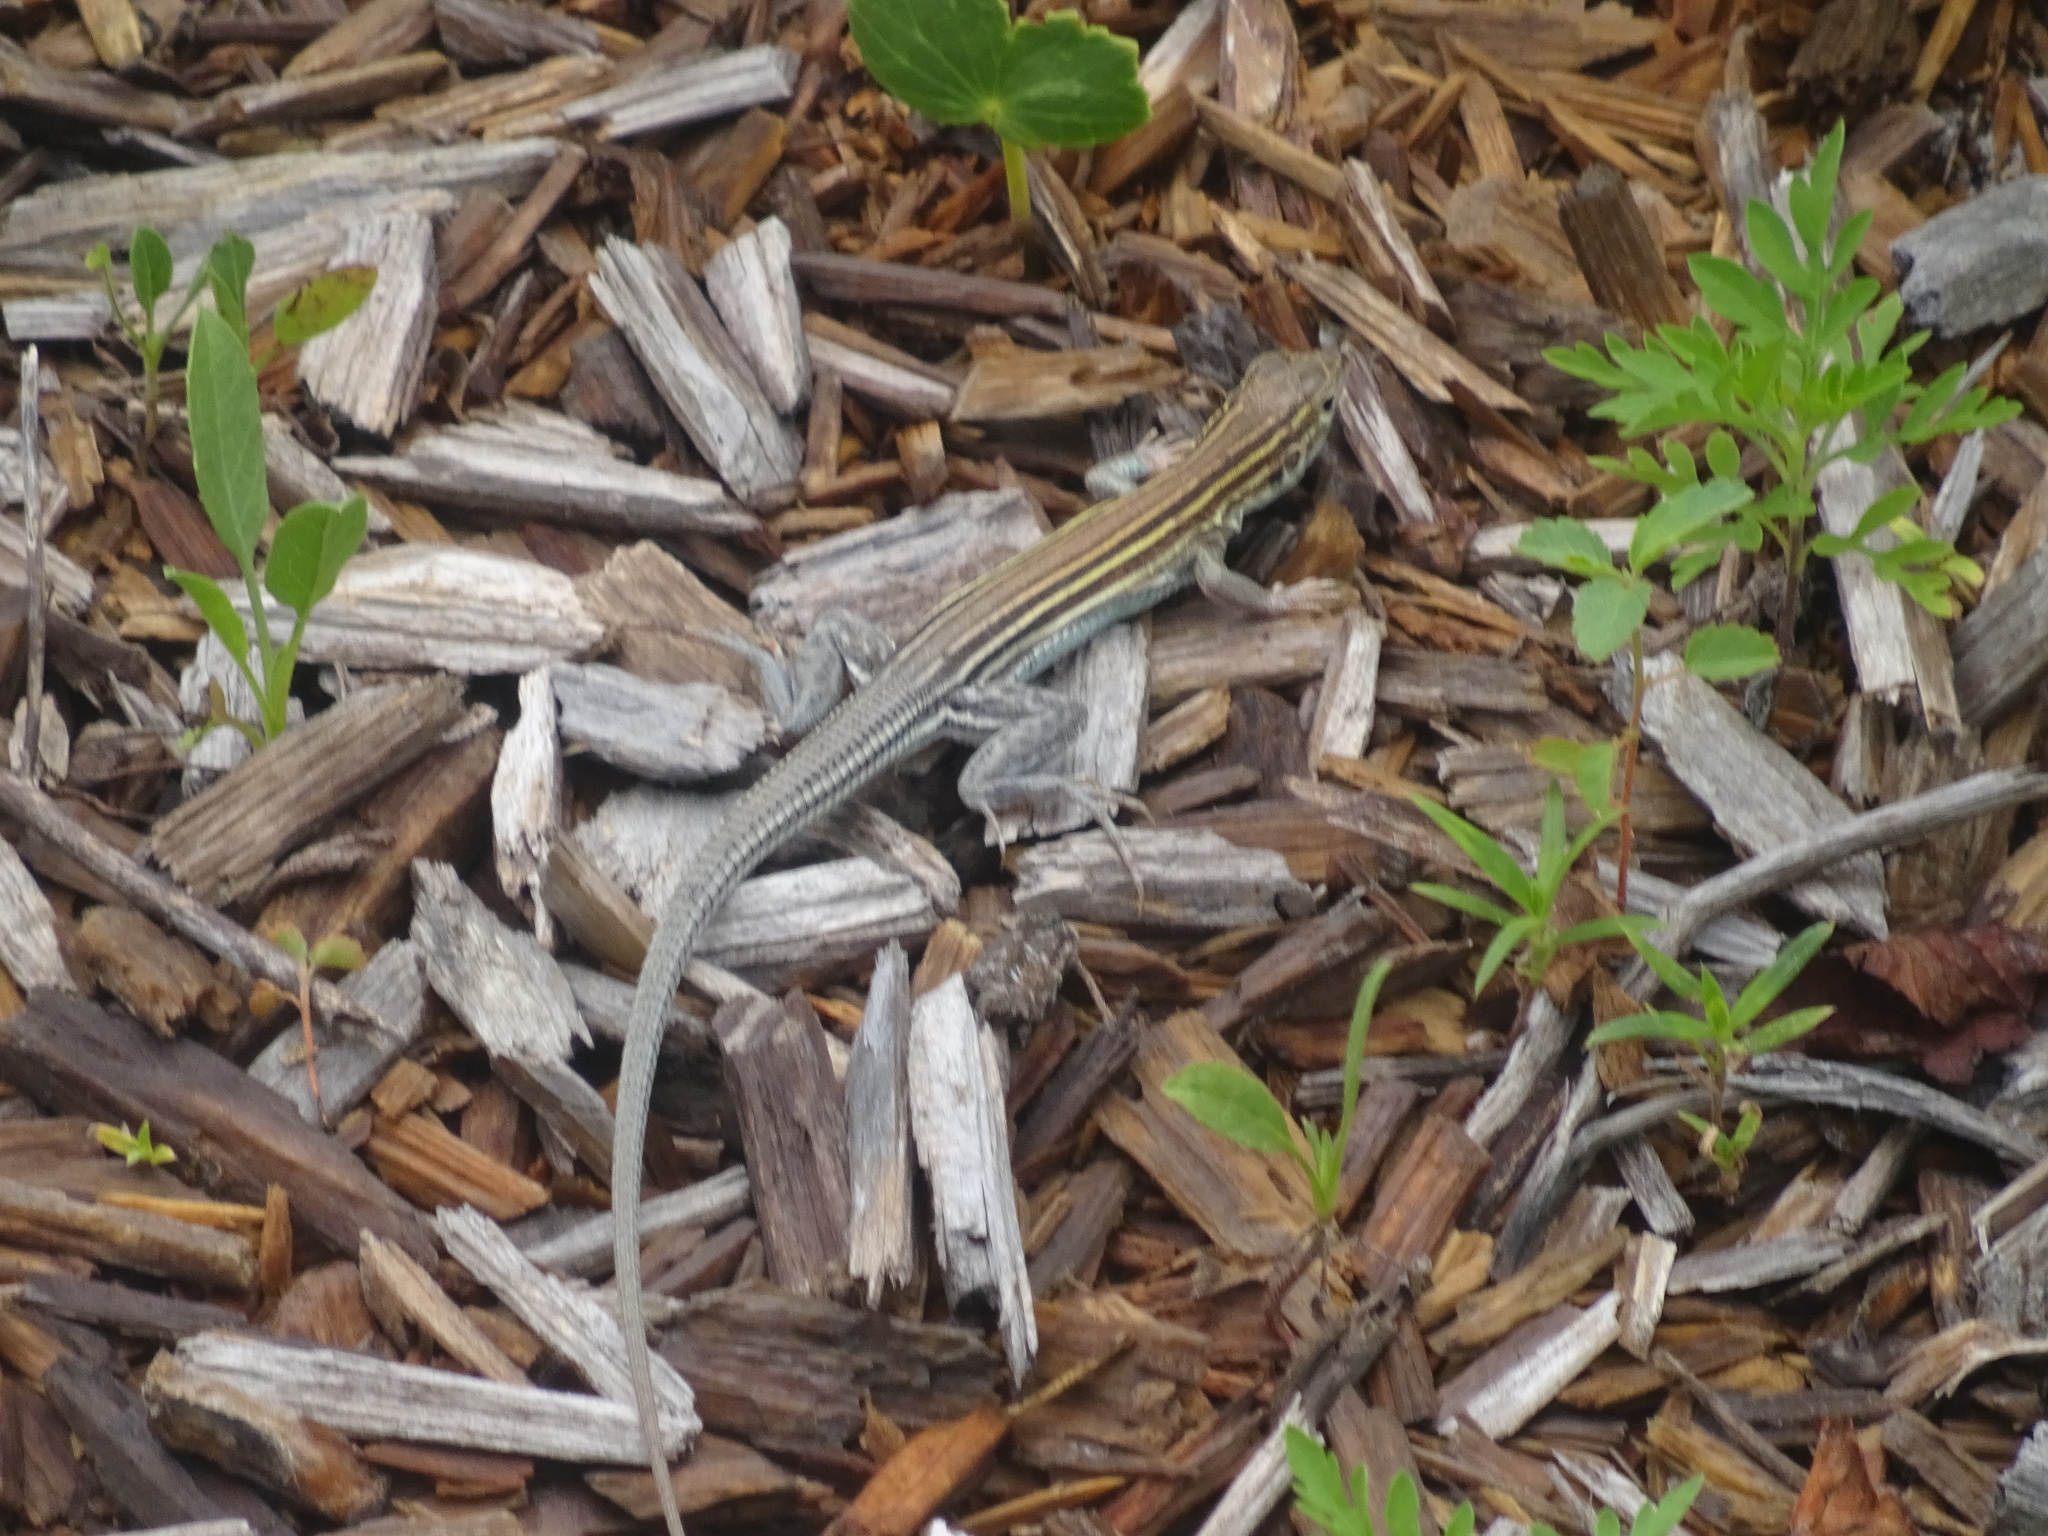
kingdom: Animalia
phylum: Chordata
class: Squamata
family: Teiidae
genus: Aspidoscelis
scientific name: Aspidoscelis sexlineatus
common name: Six-lined racerunner
